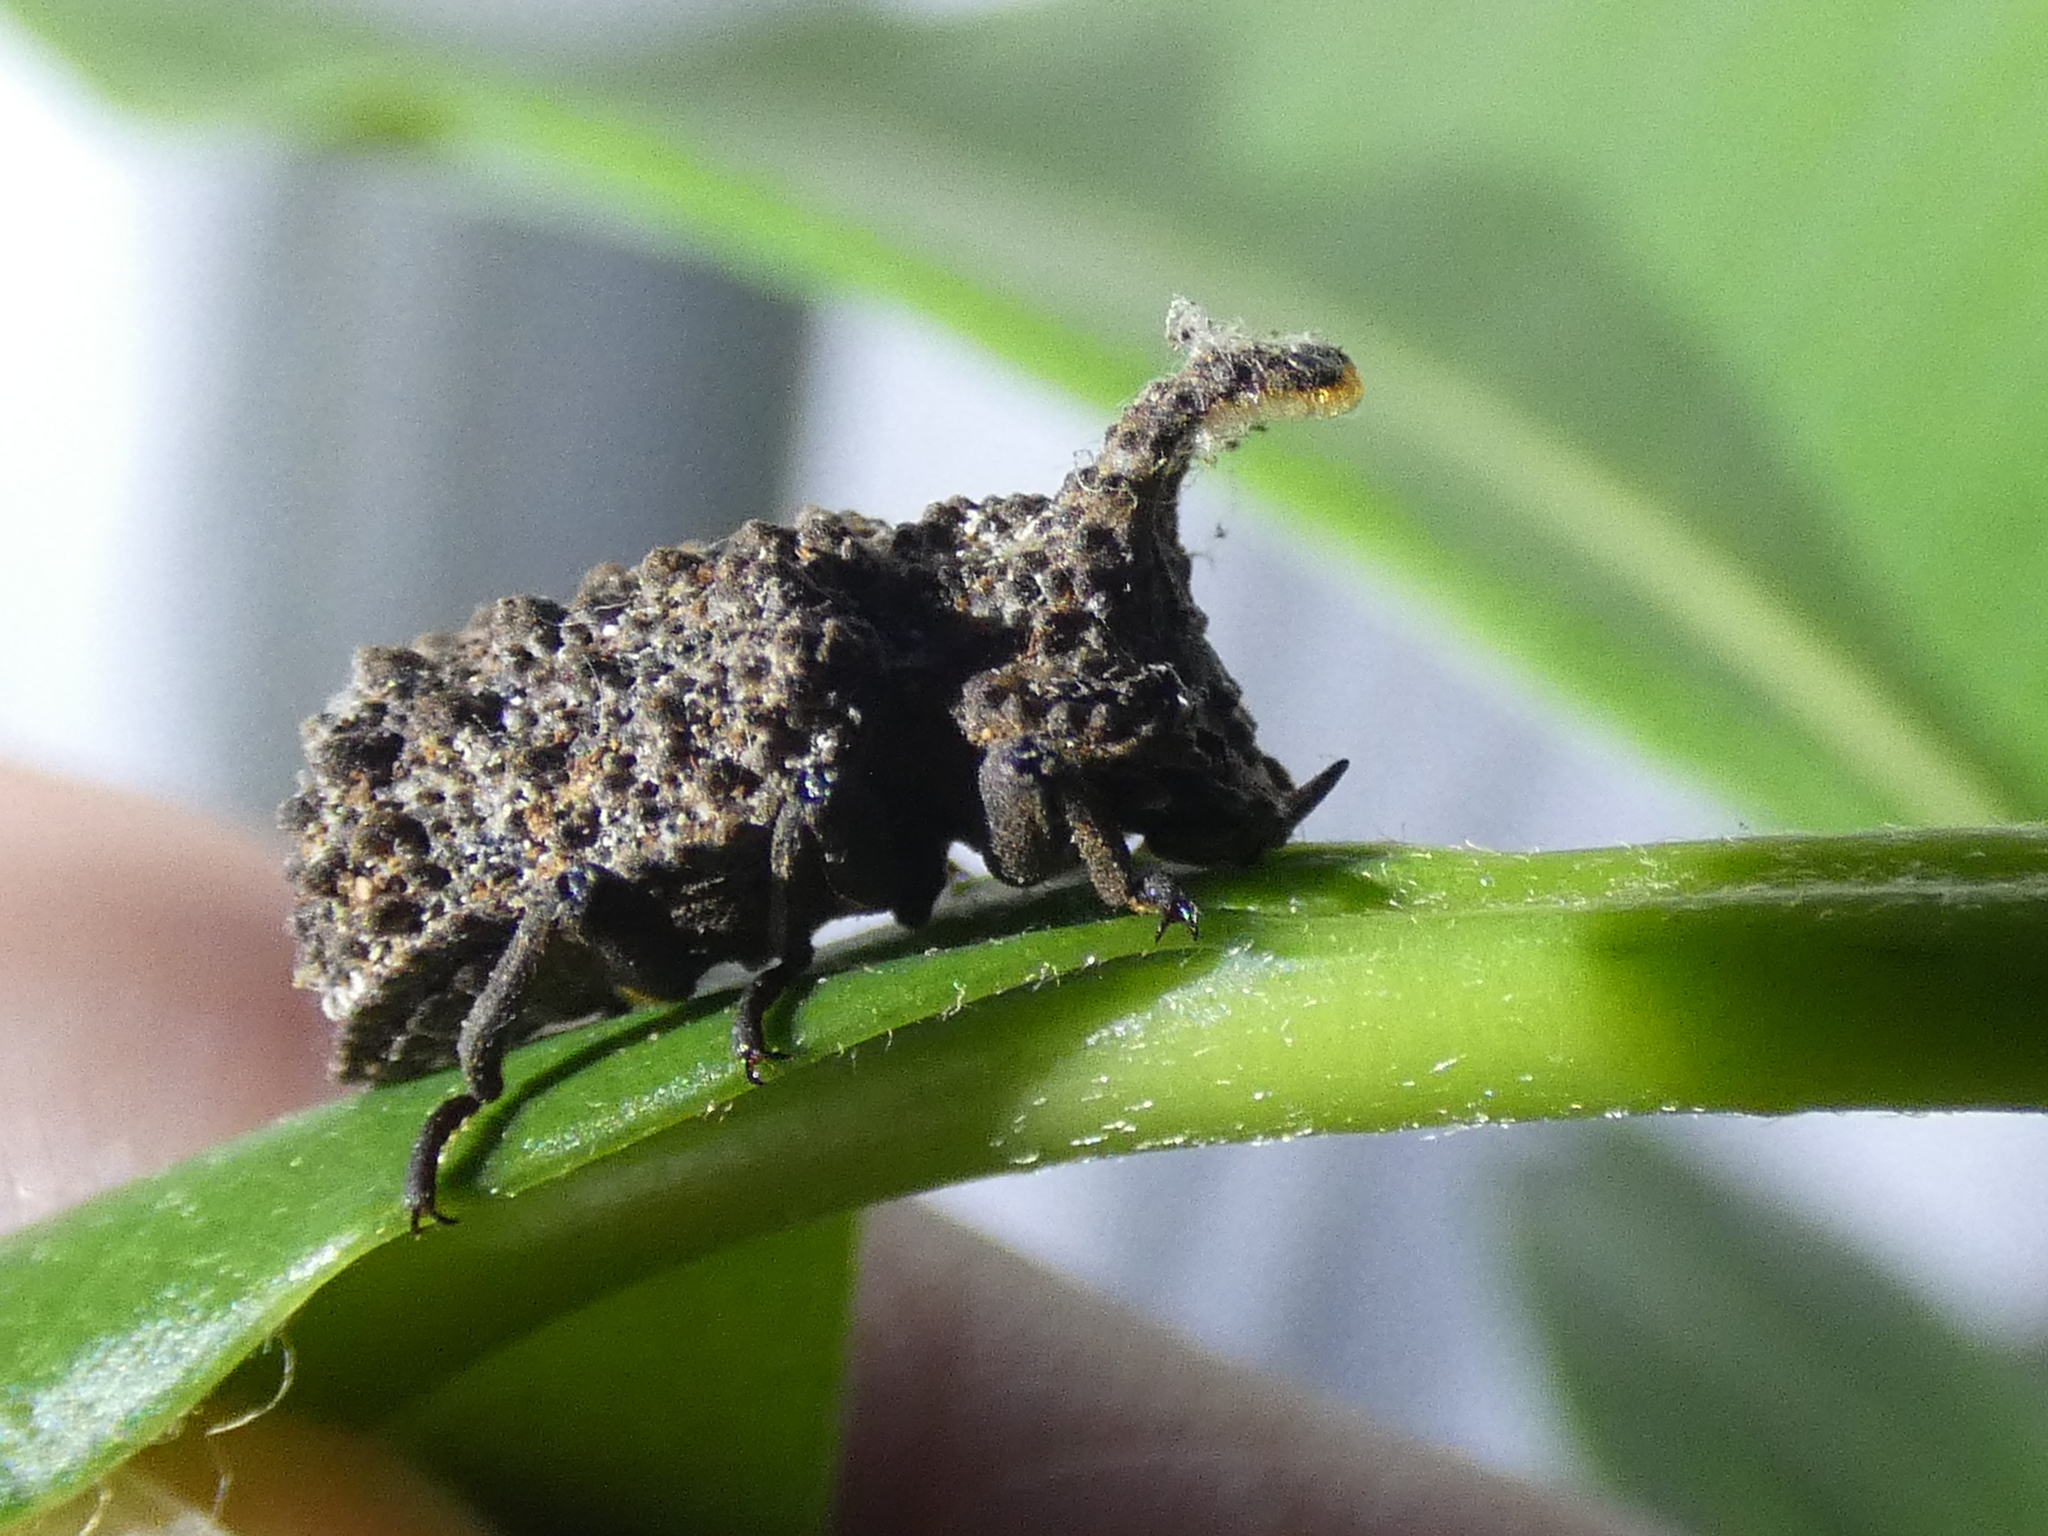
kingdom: Animalia
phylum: Arthropoda
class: Insecta
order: Coleoptera
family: Tenebrionidae
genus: Gnatocerus
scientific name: Gnatocerus cornutus
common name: Broad-horned flour beetle
